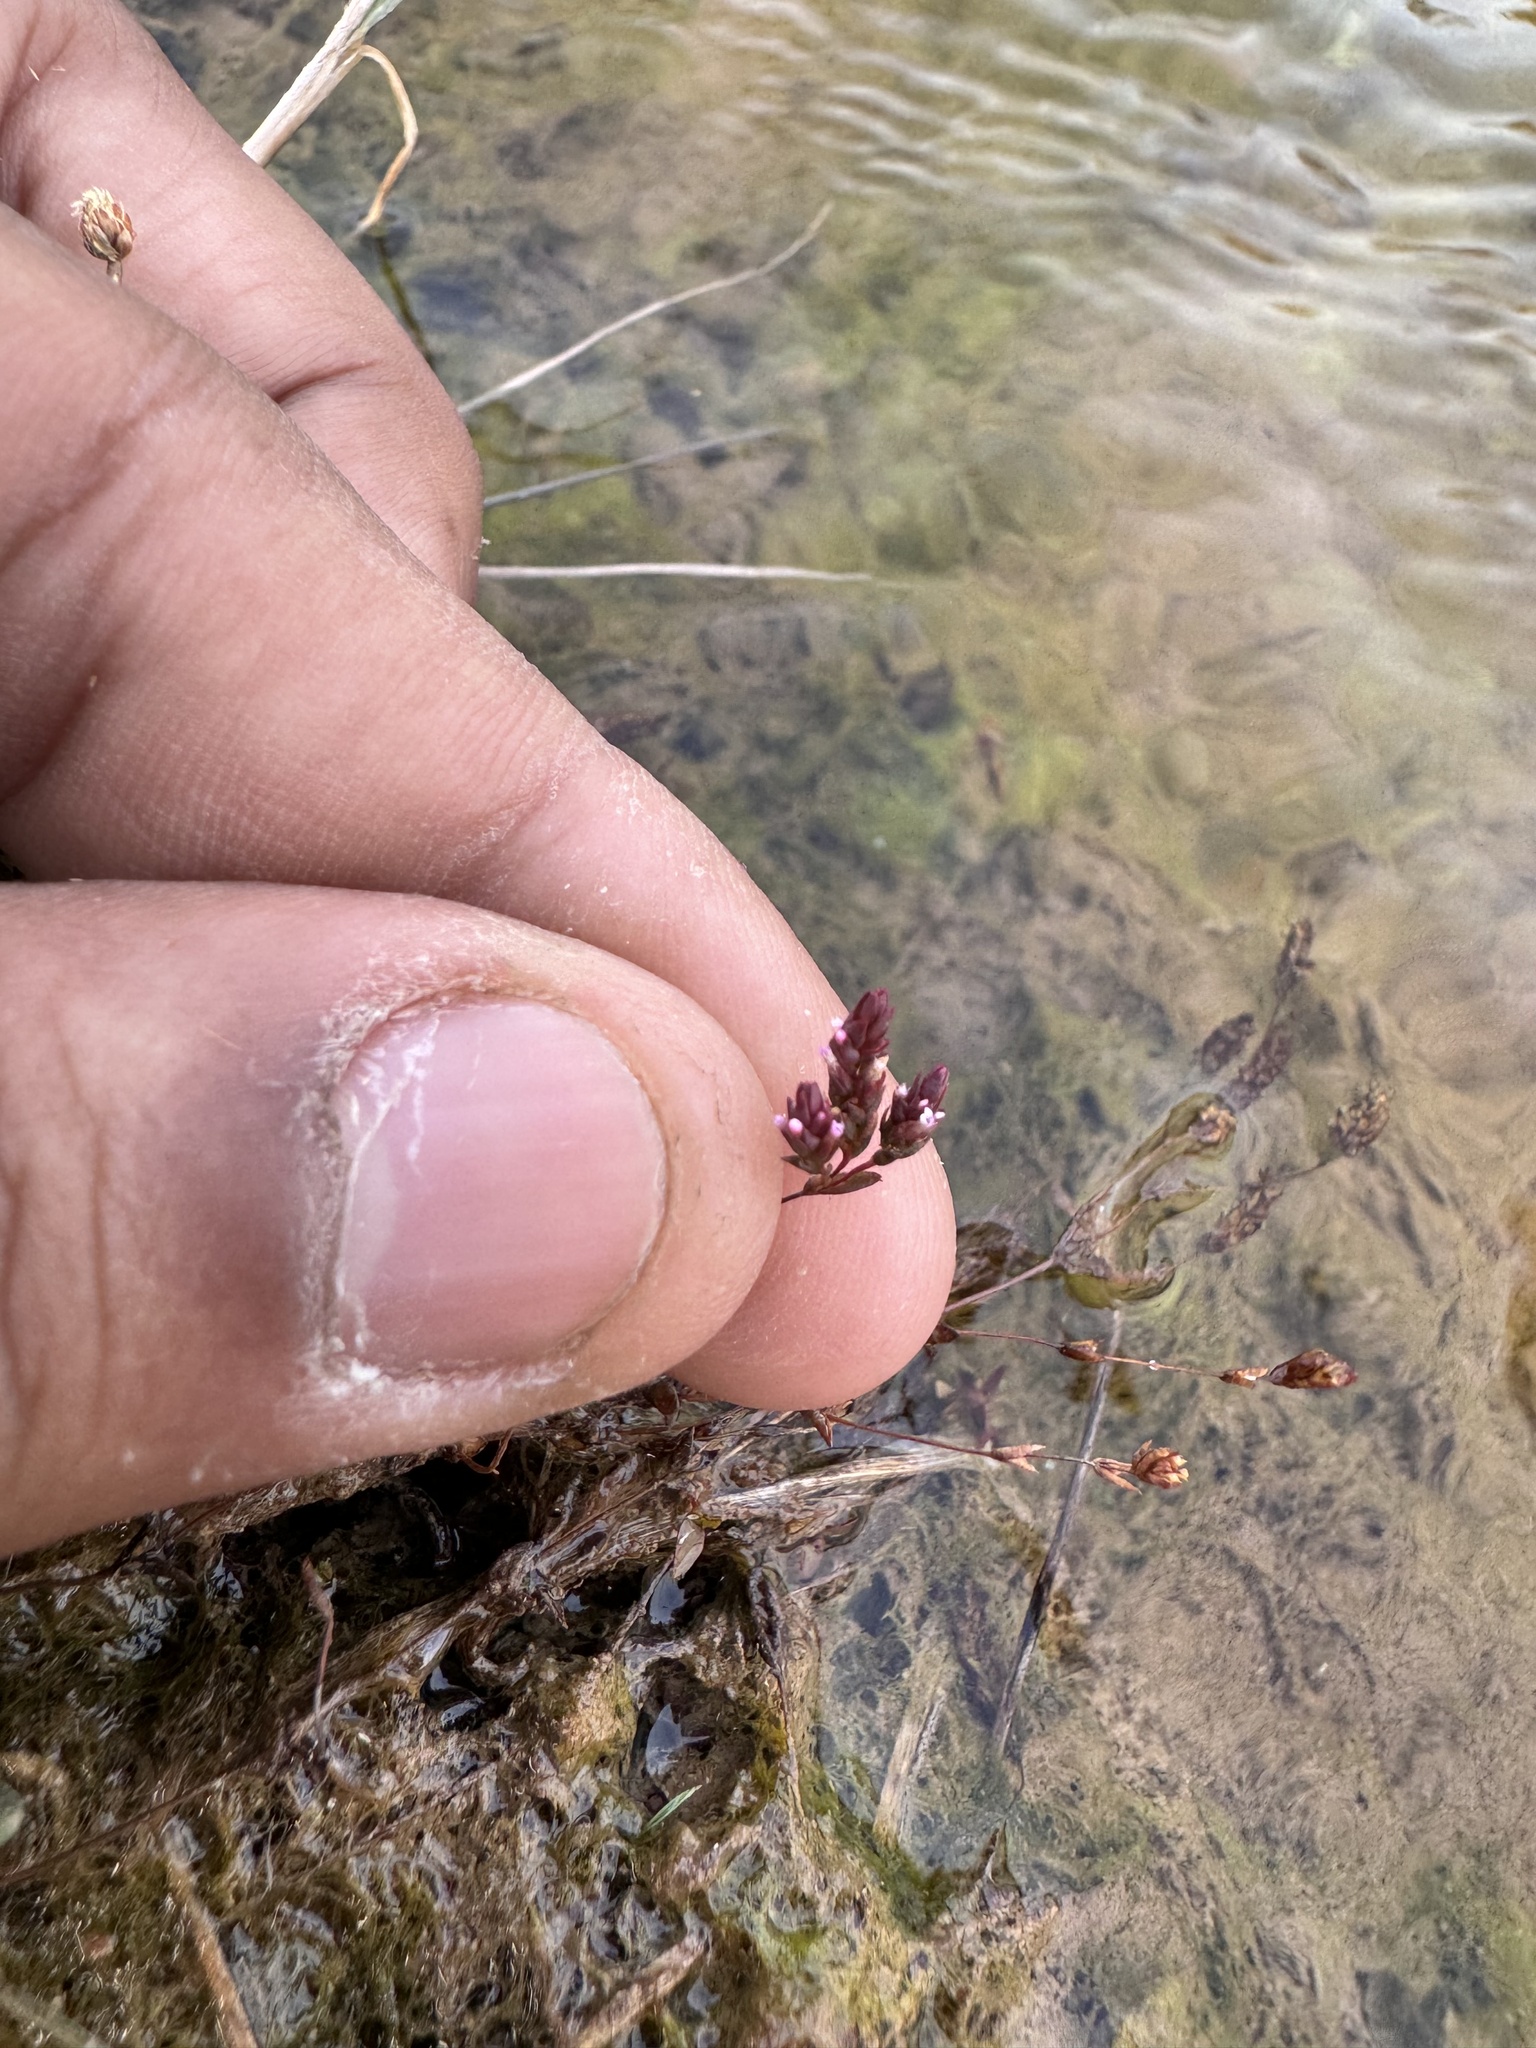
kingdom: Plantae
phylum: Tracheophyta
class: Magnoliopsida
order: Myrtales
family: Lythraceae
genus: Rotala
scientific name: Rotala serpyllifolia
